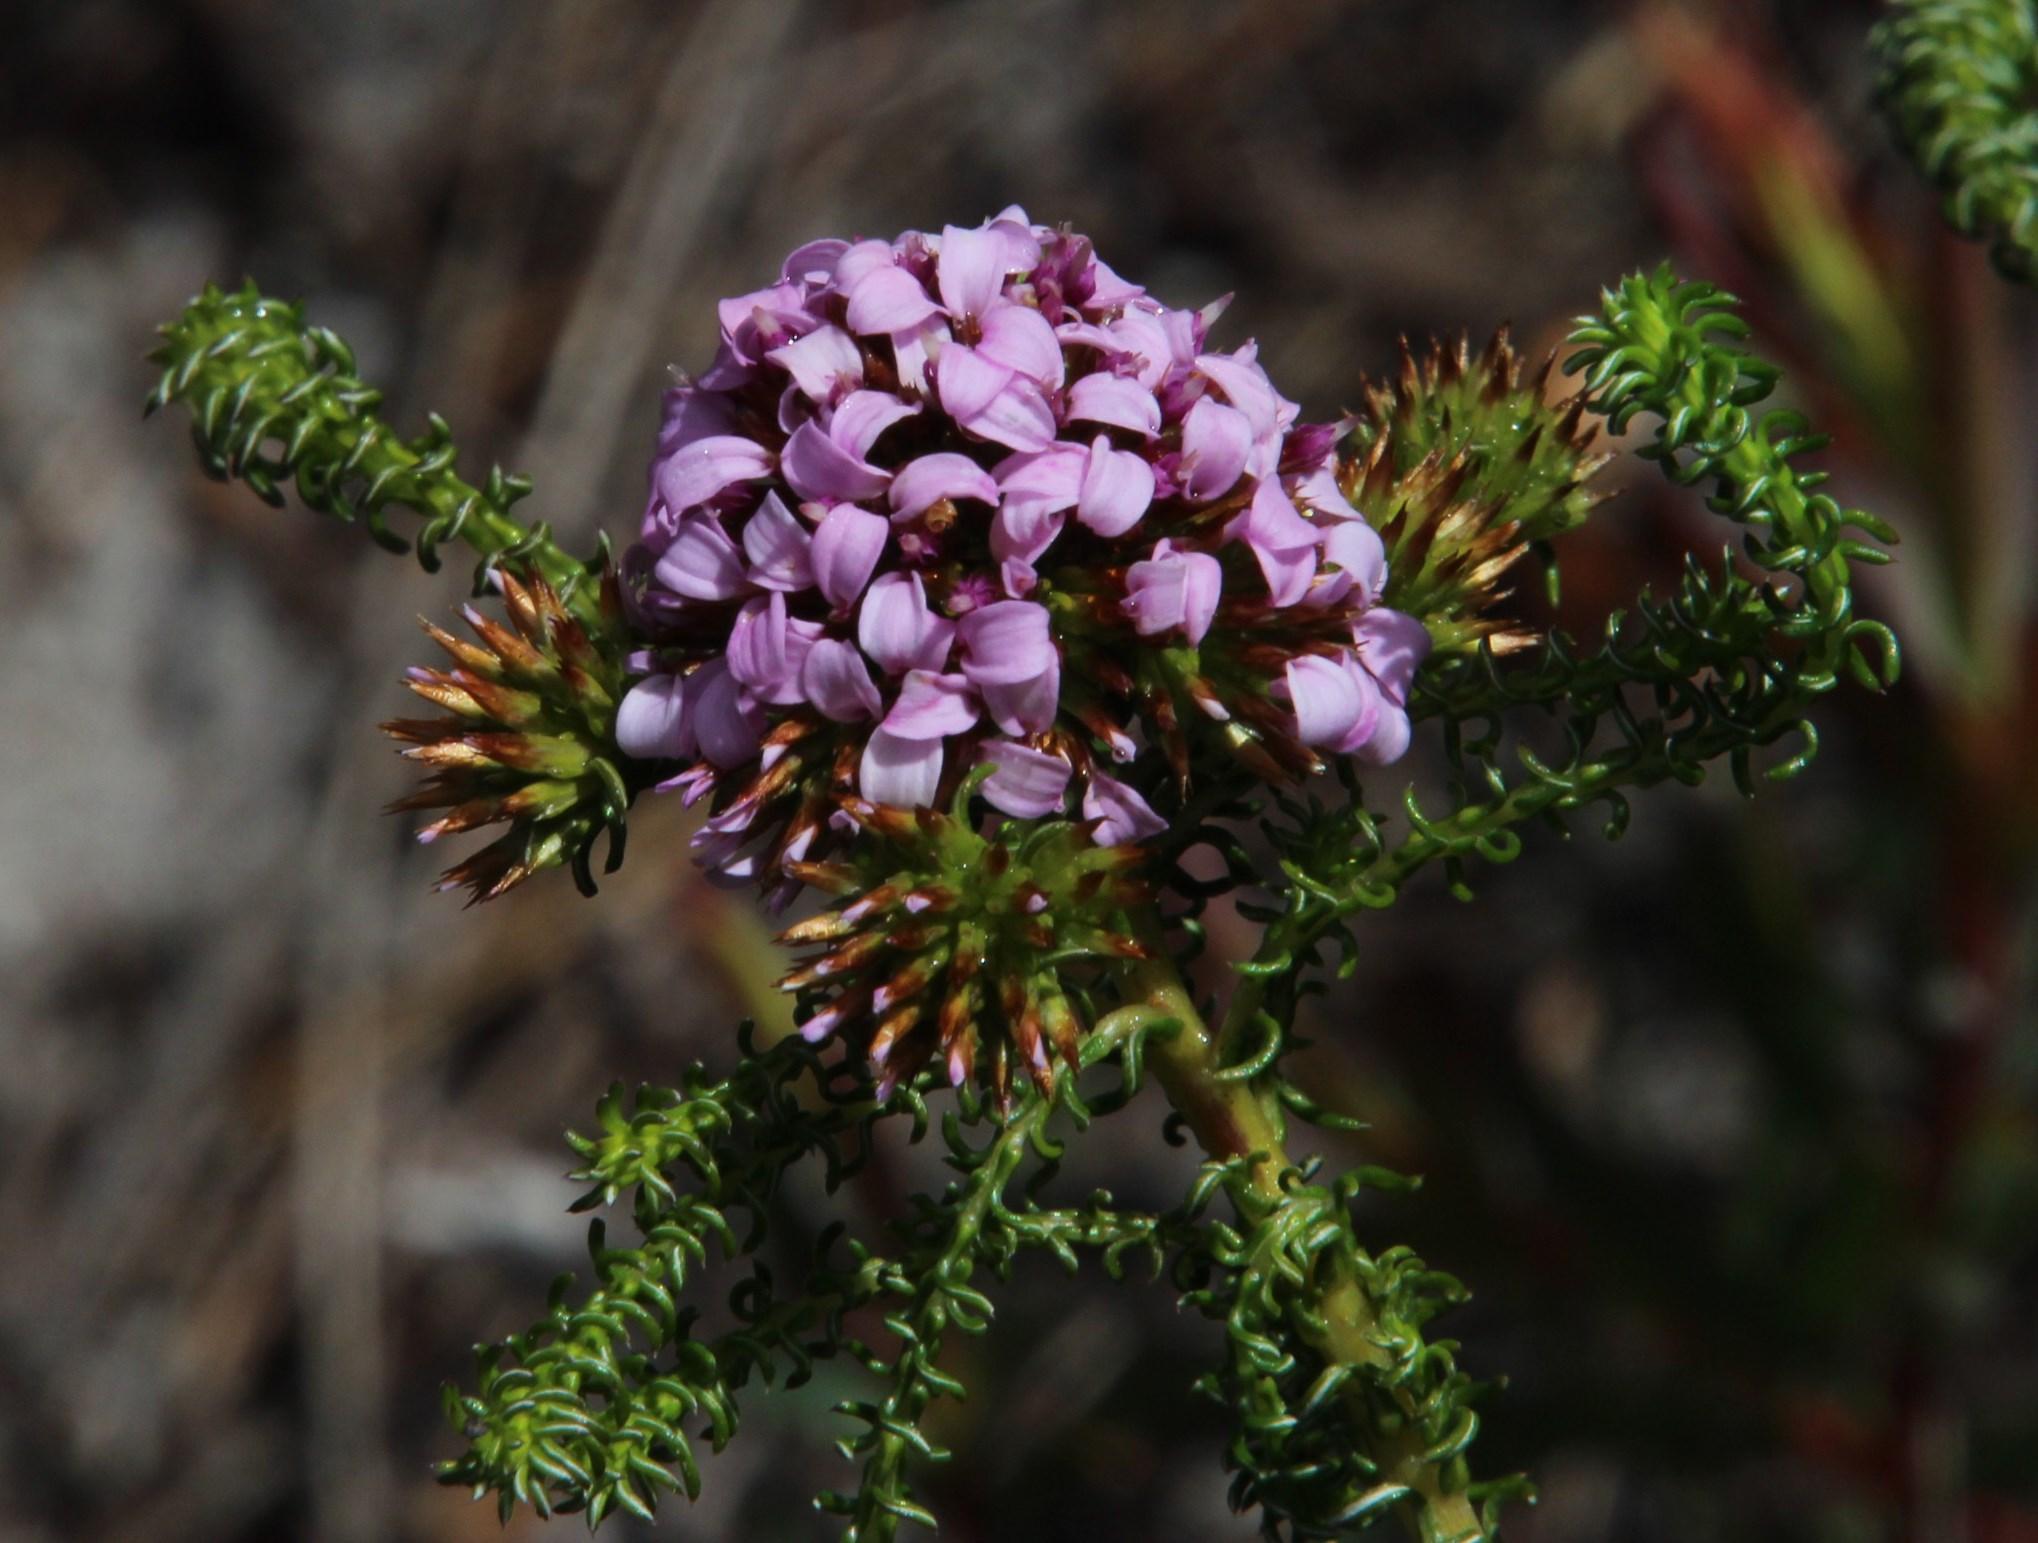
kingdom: Plantae
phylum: Tracheophyta
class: Magnoliopsida
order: Asterales
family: Asteraceae
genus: Disparago
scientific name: Disparago ericoides
